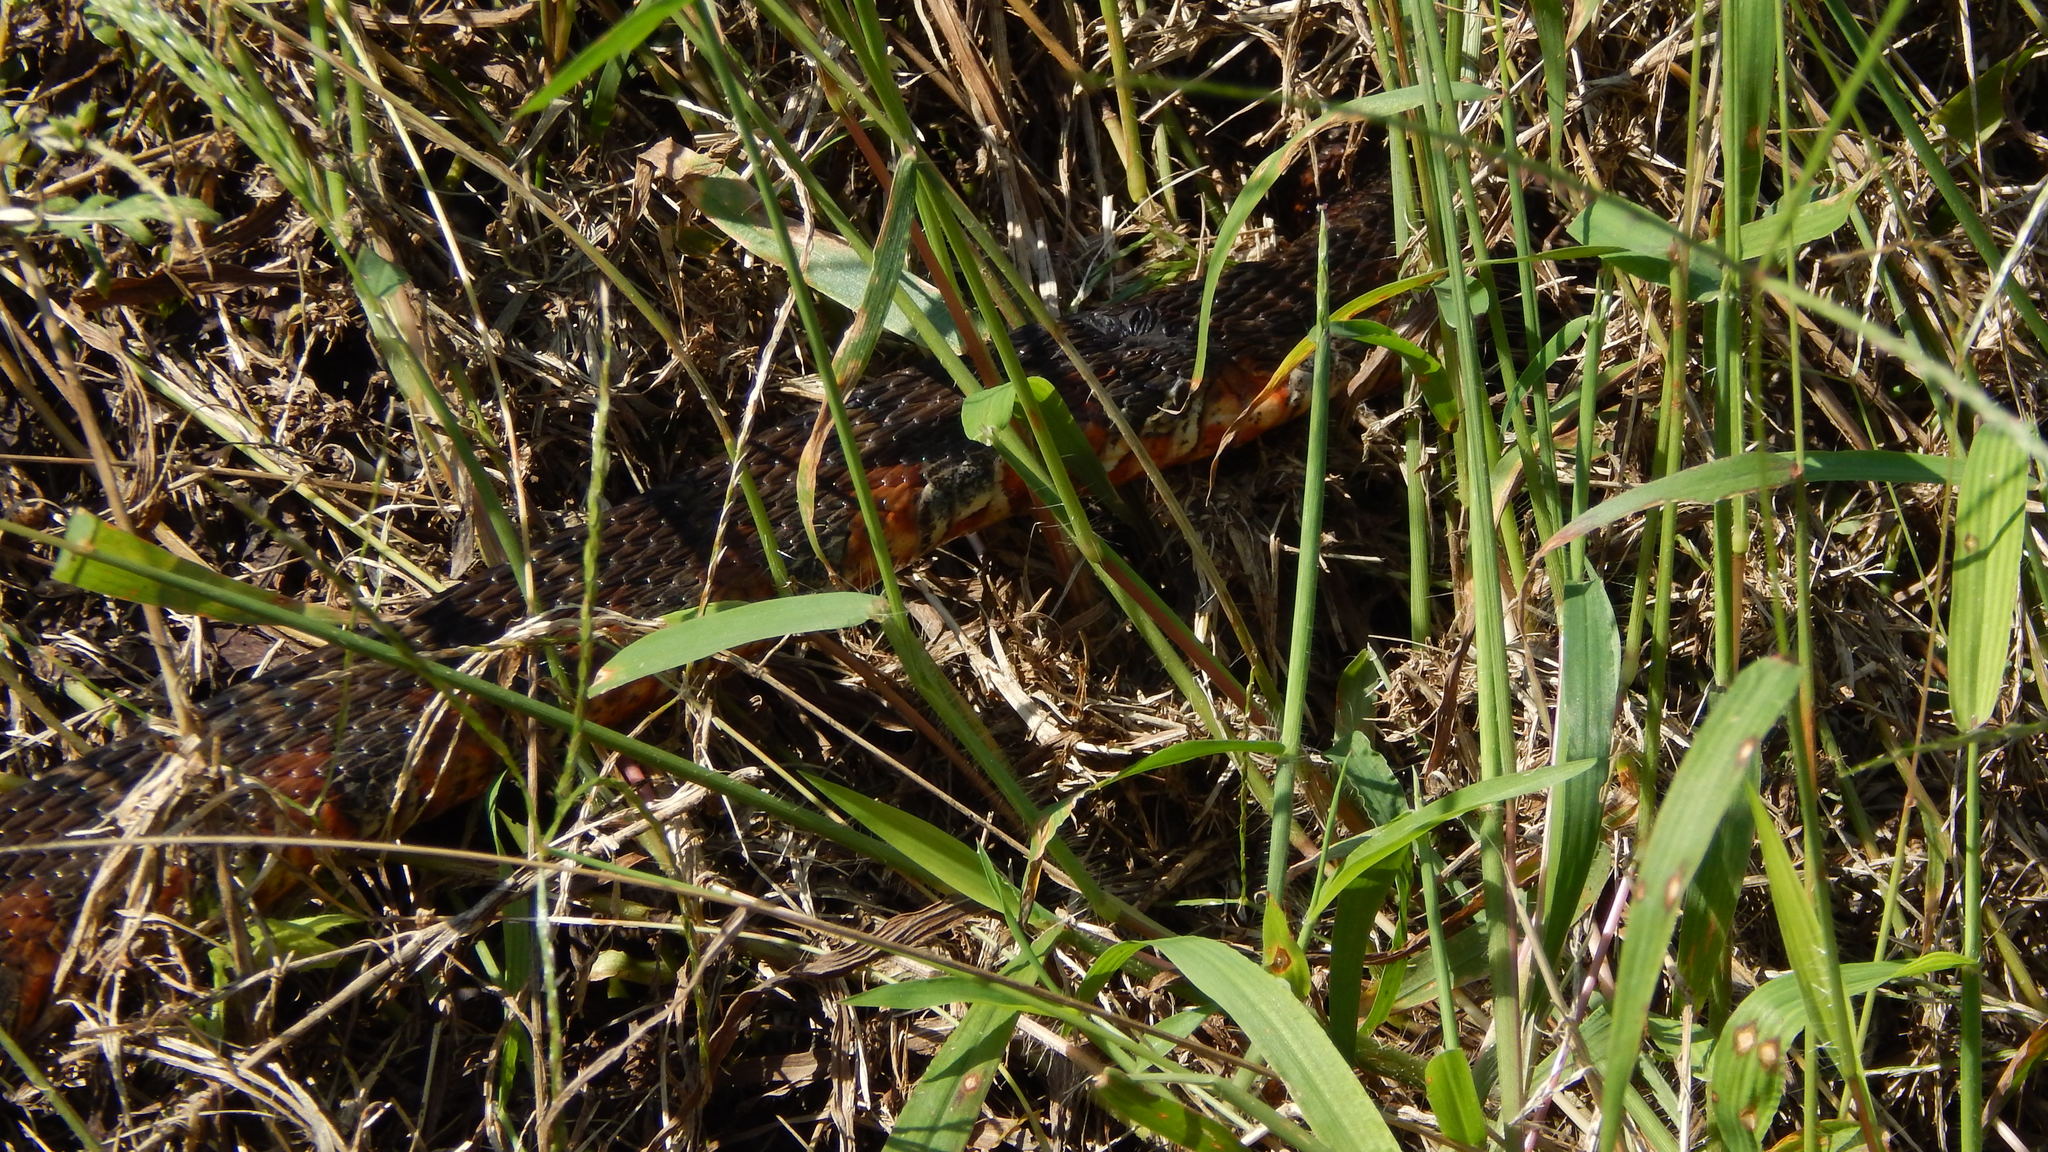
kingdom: Animalia
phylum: Chordata
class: Squamata
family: Colubridae
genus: Nerodia
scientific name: Nerodia sipedon
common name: Northern water snake
